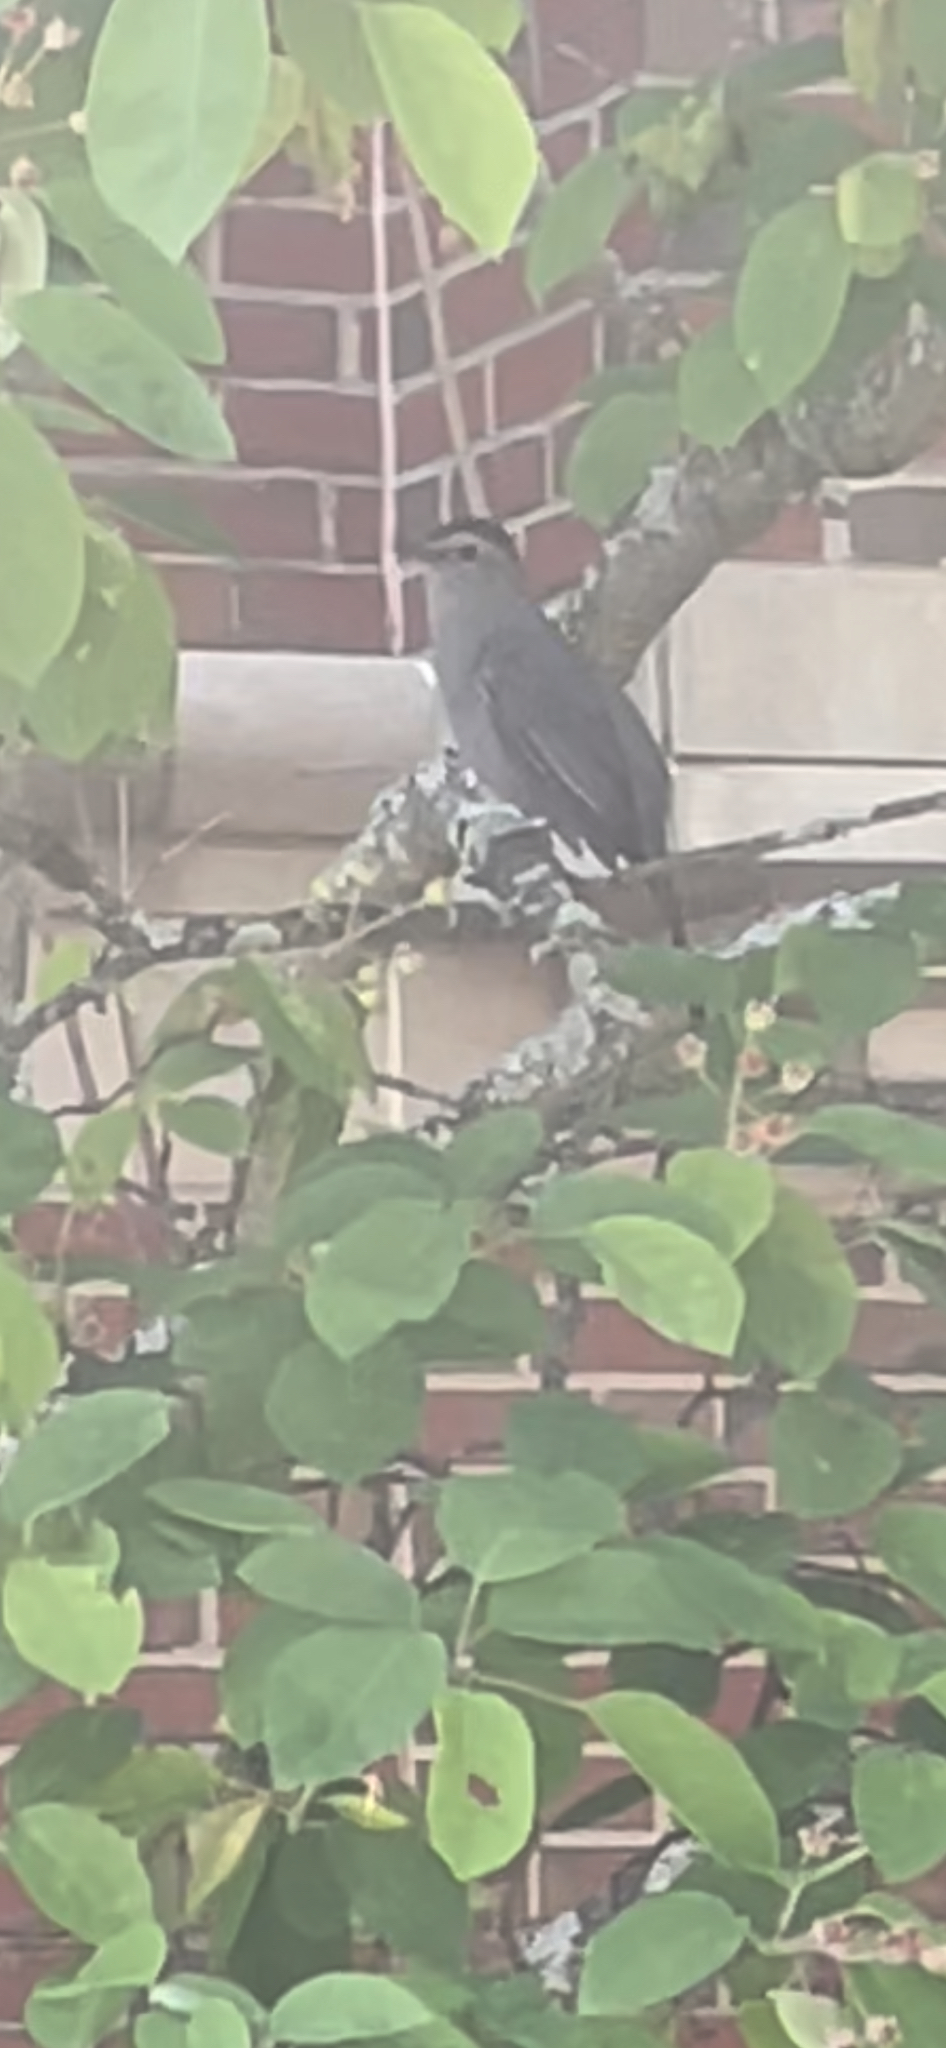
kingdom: Animalia
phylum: Chordata
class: Aves
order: Passeriformes
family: Mimidae
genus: Dumetella
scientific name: Dumetella carolinensis
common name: Gray catbird
